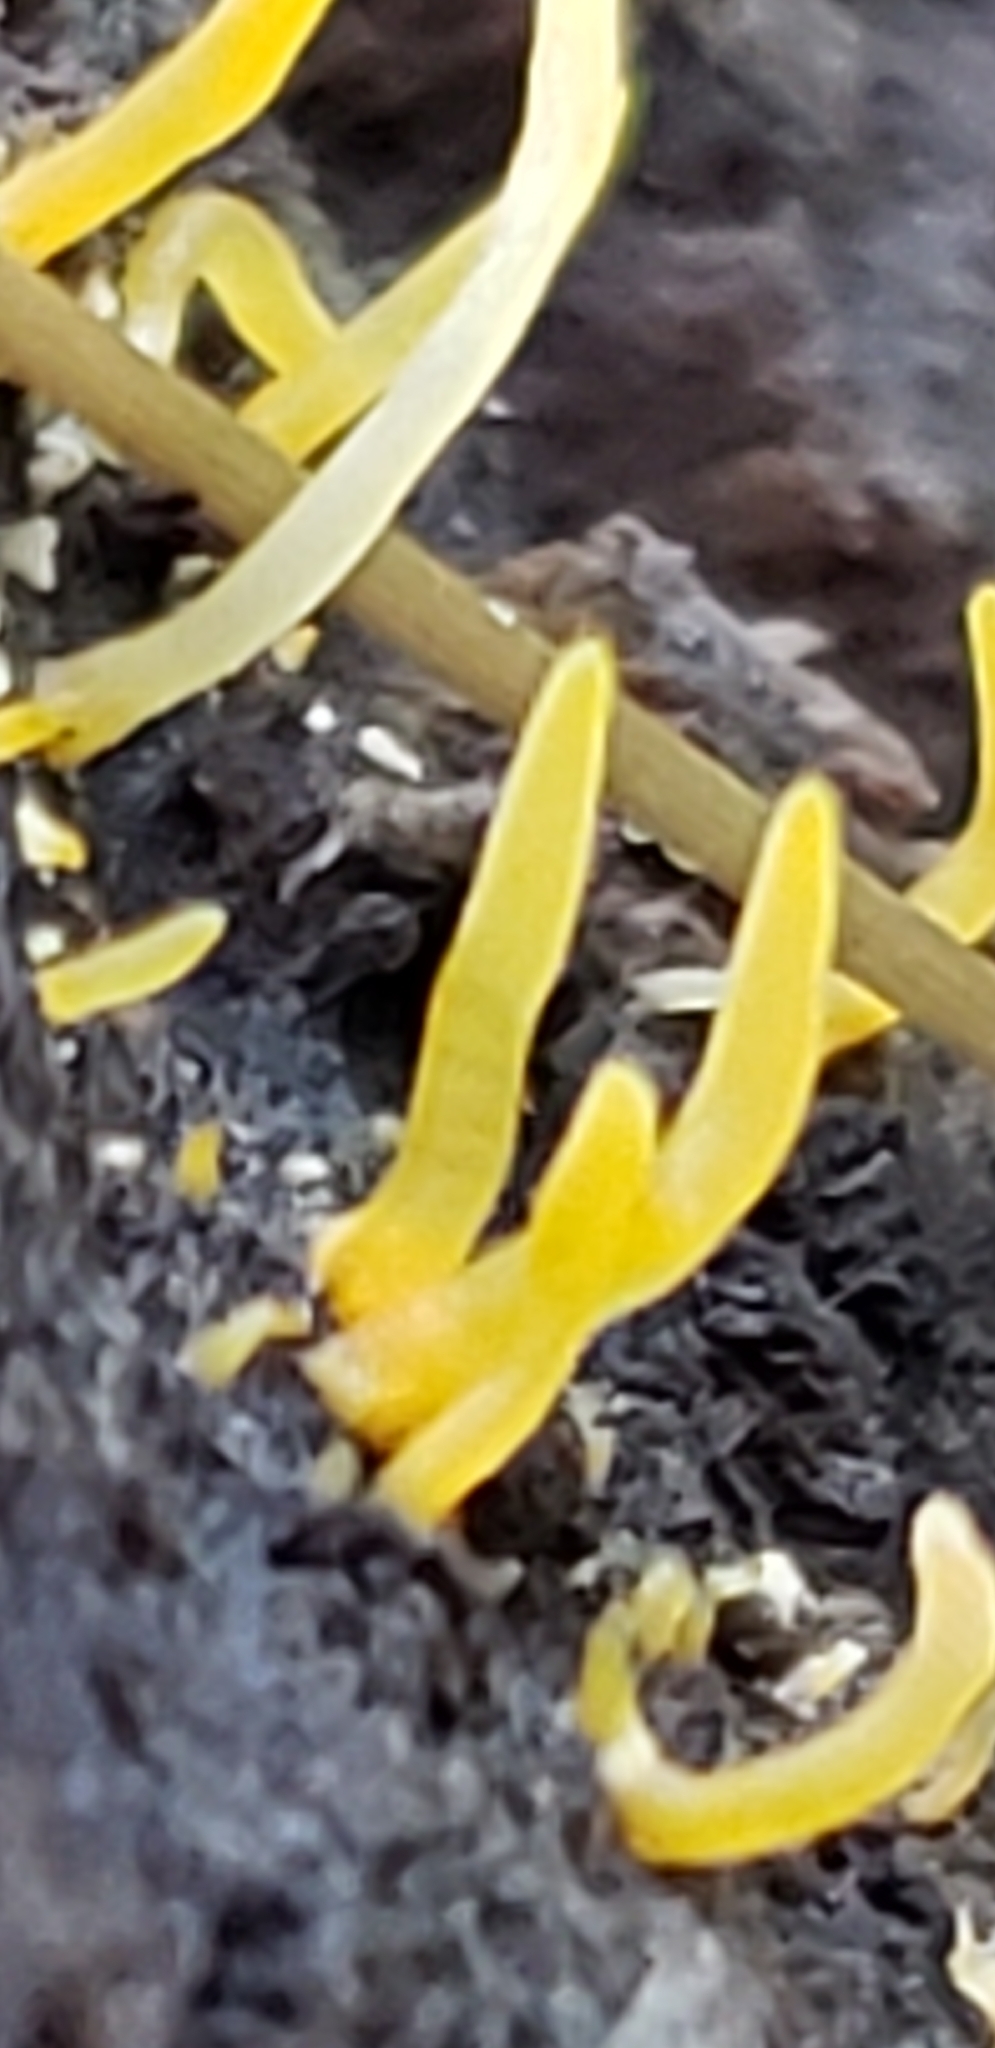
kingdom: Fungi
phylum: Basidiomycota
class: Dacrymycetes
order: Dacrymycetales
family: Dacrymycetaceae
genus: Calocera
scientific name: Calocera cornea
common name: Small stagshorn
